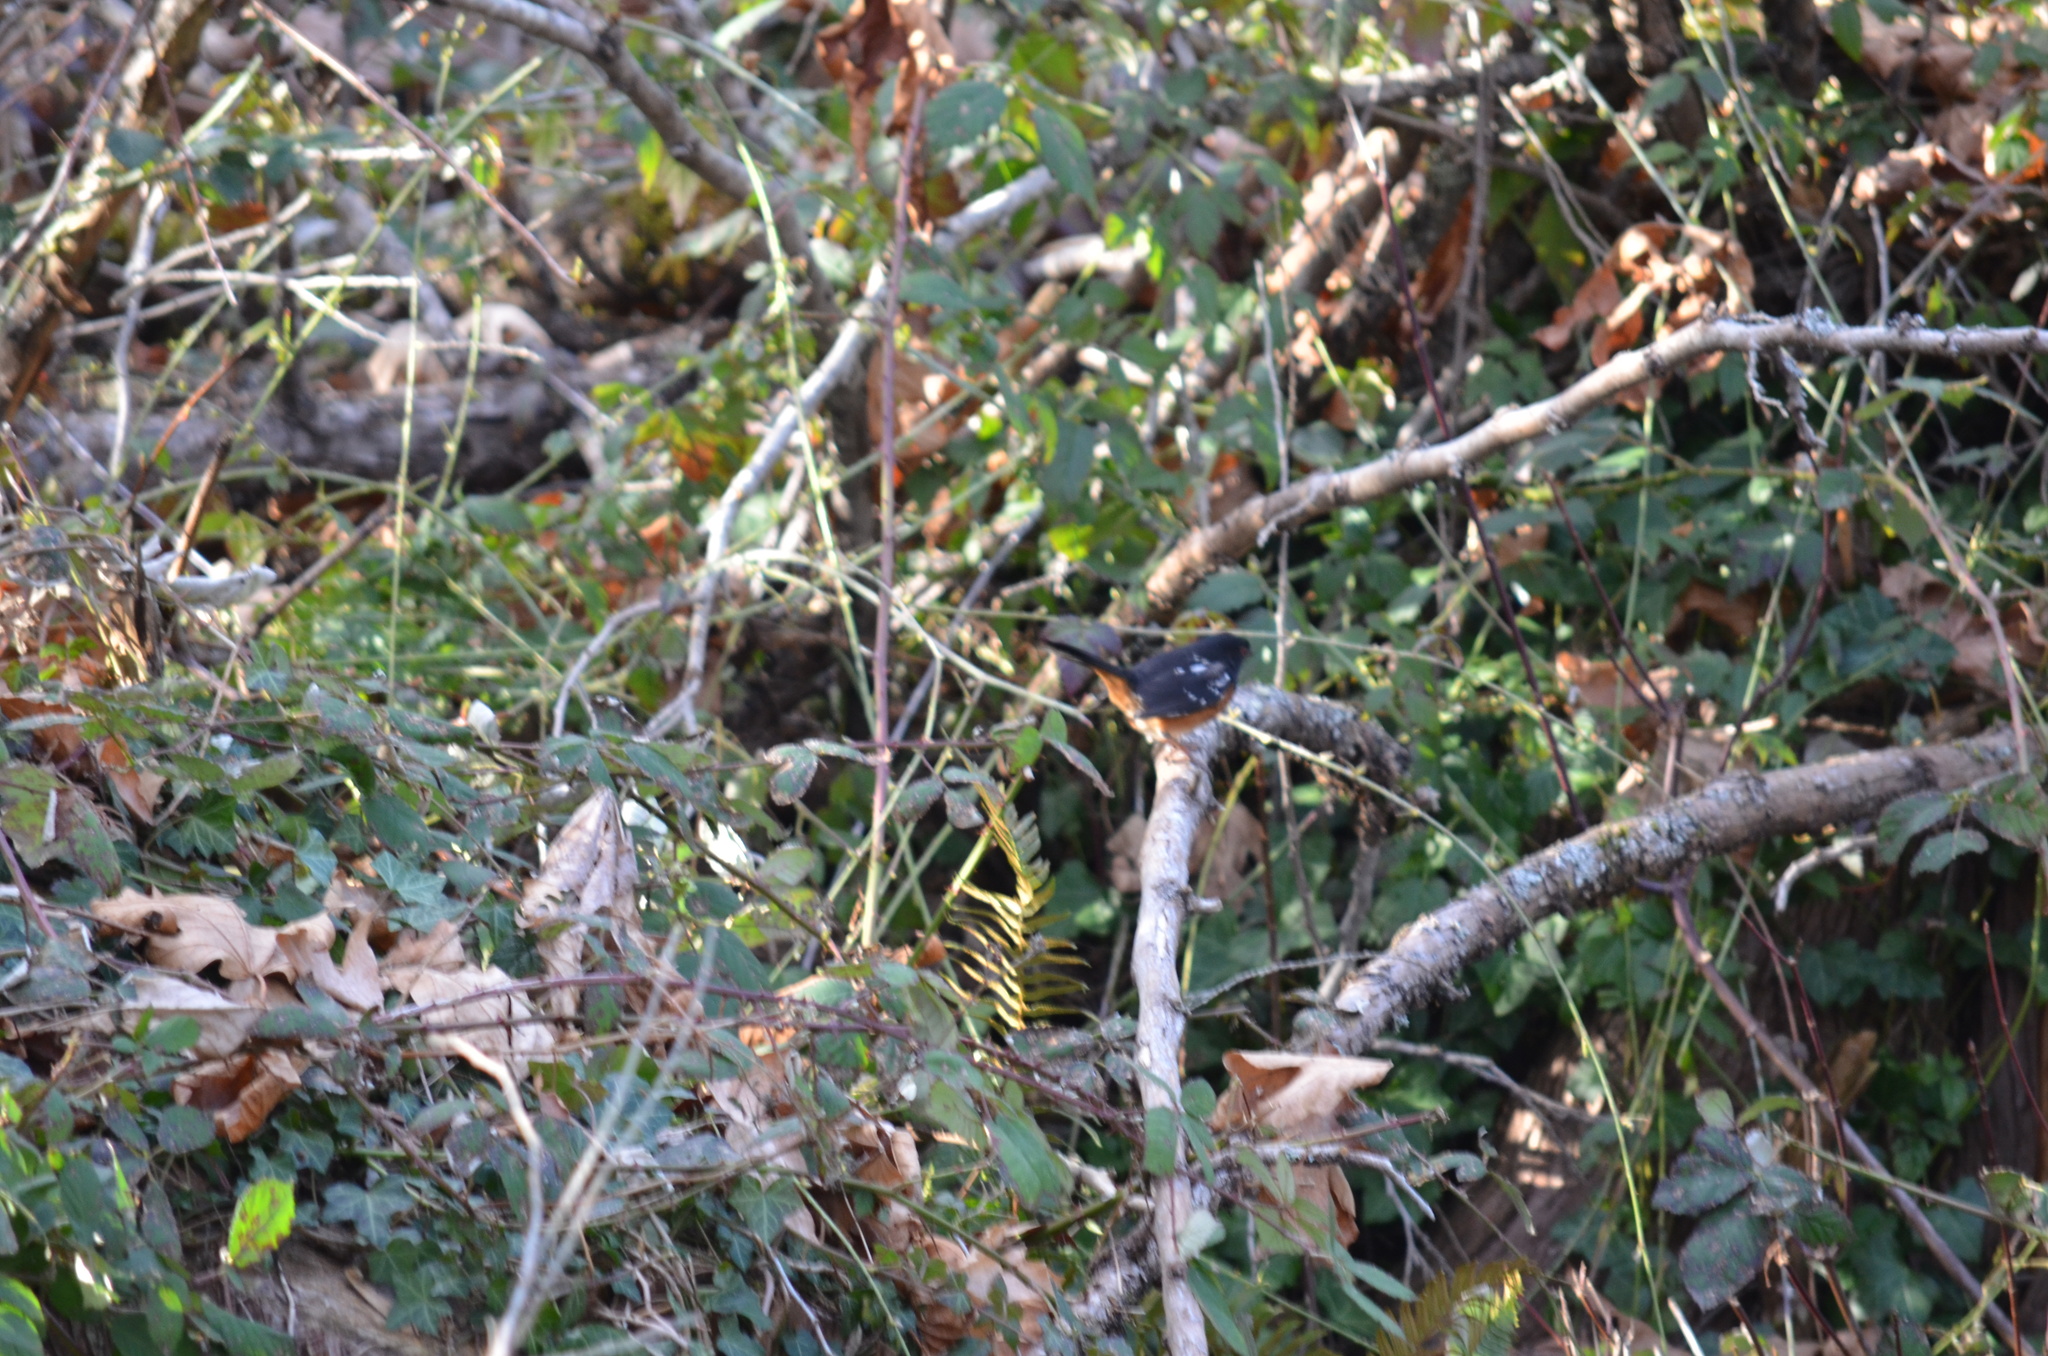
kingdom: Animalia
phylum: Chordata
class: Aves
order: Passeriformes
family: Passerellidae
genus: Pipilo
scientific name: Pipilo maculatus
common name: Spotted towhee
